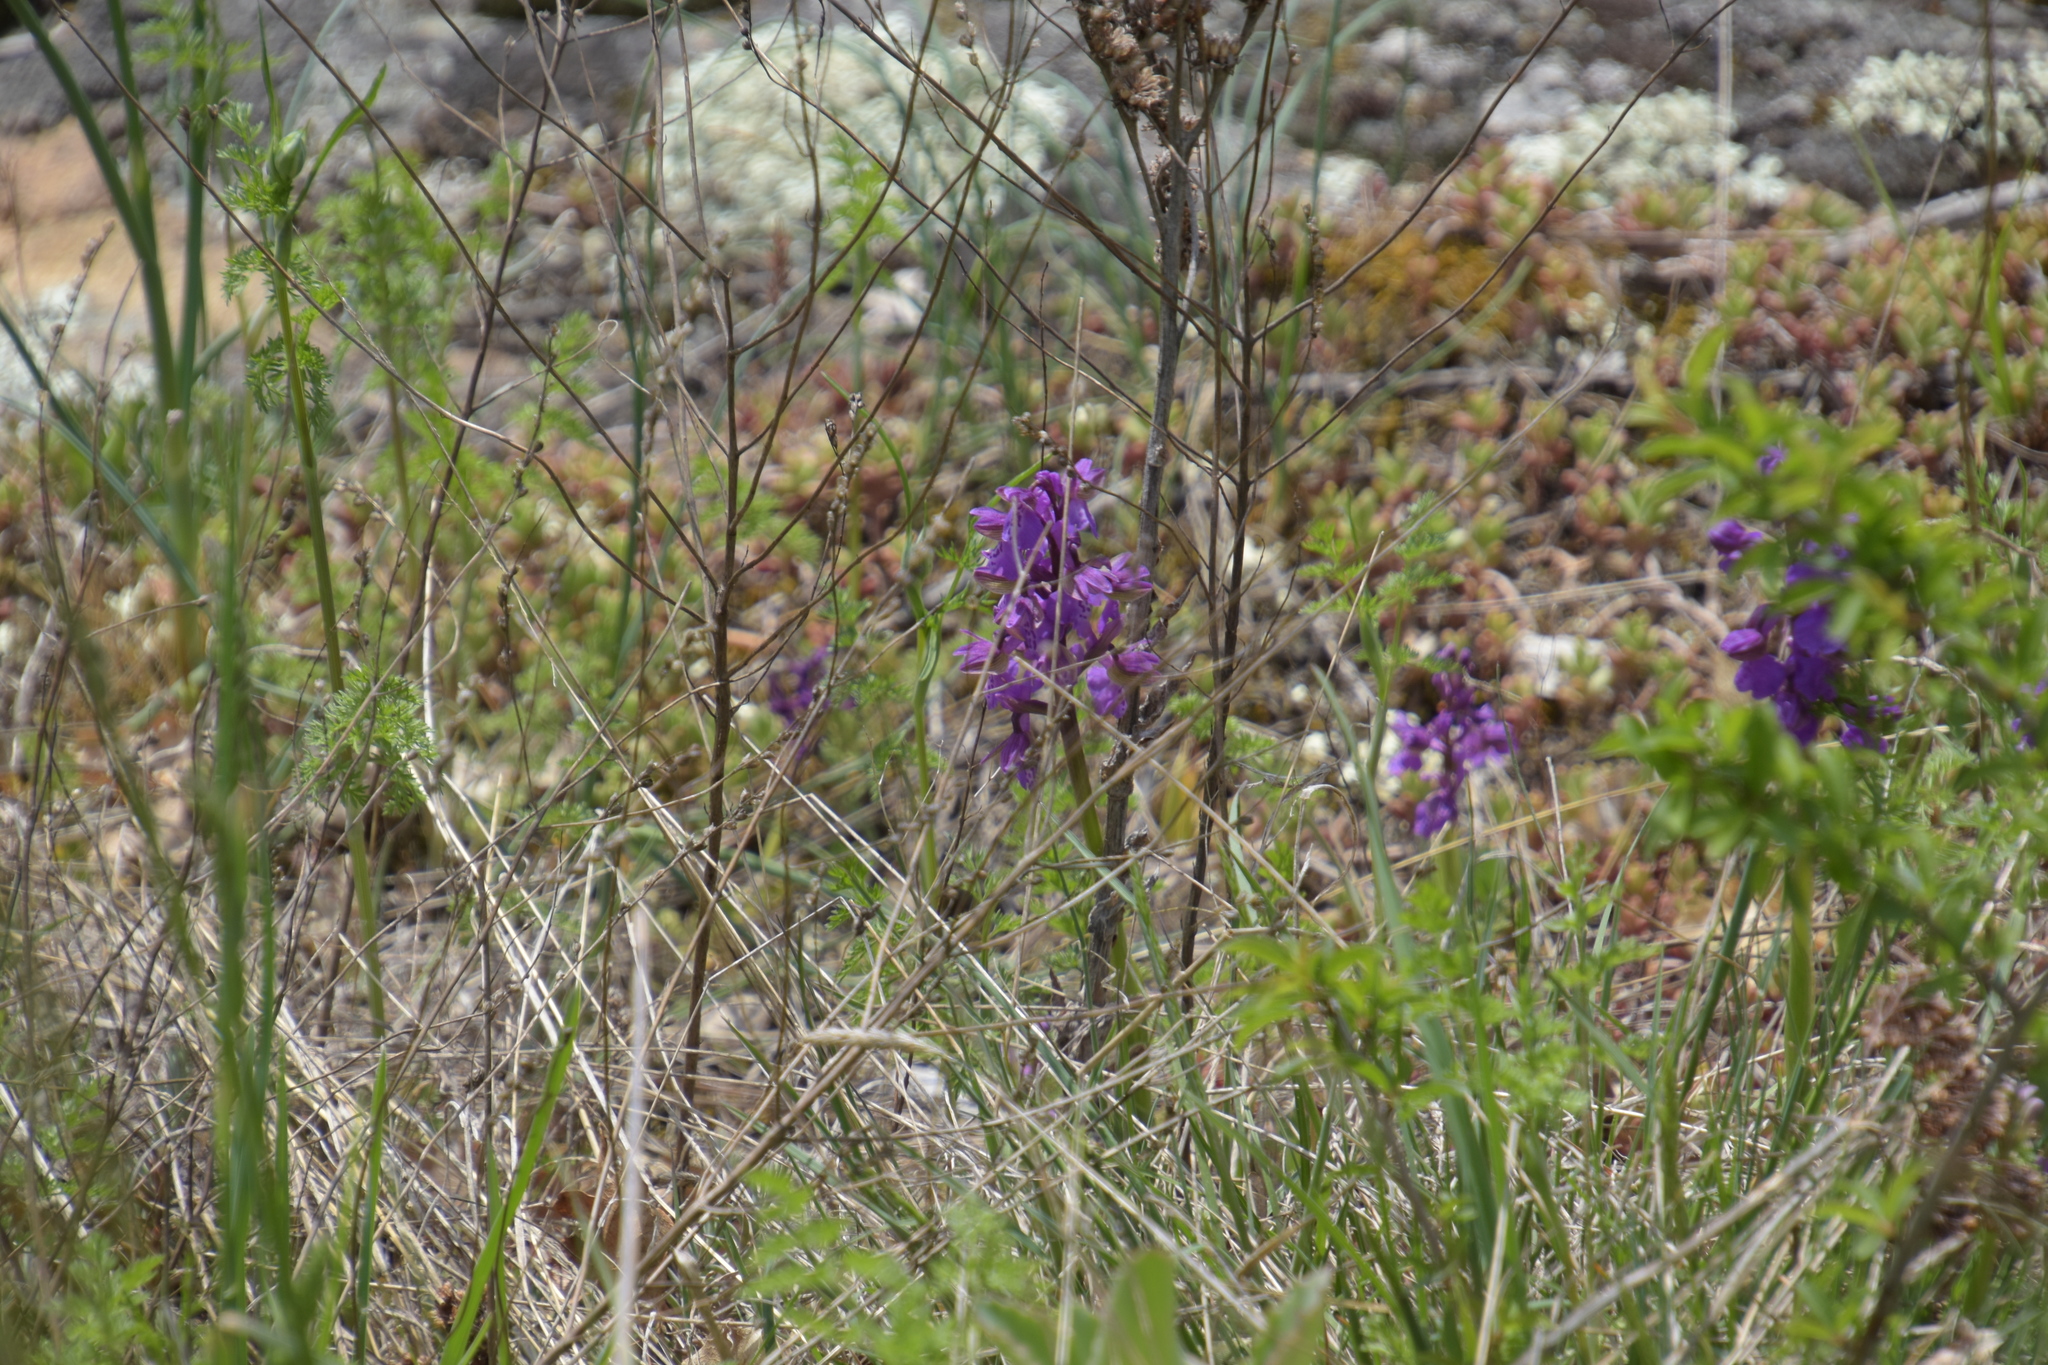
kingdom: Plantae
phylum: Tracheophyta
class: Liliopsida
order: Asparagales
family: Orchidaceae
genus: Anacamptis
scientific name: Anacamptis morio
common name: Green-winged orchid
